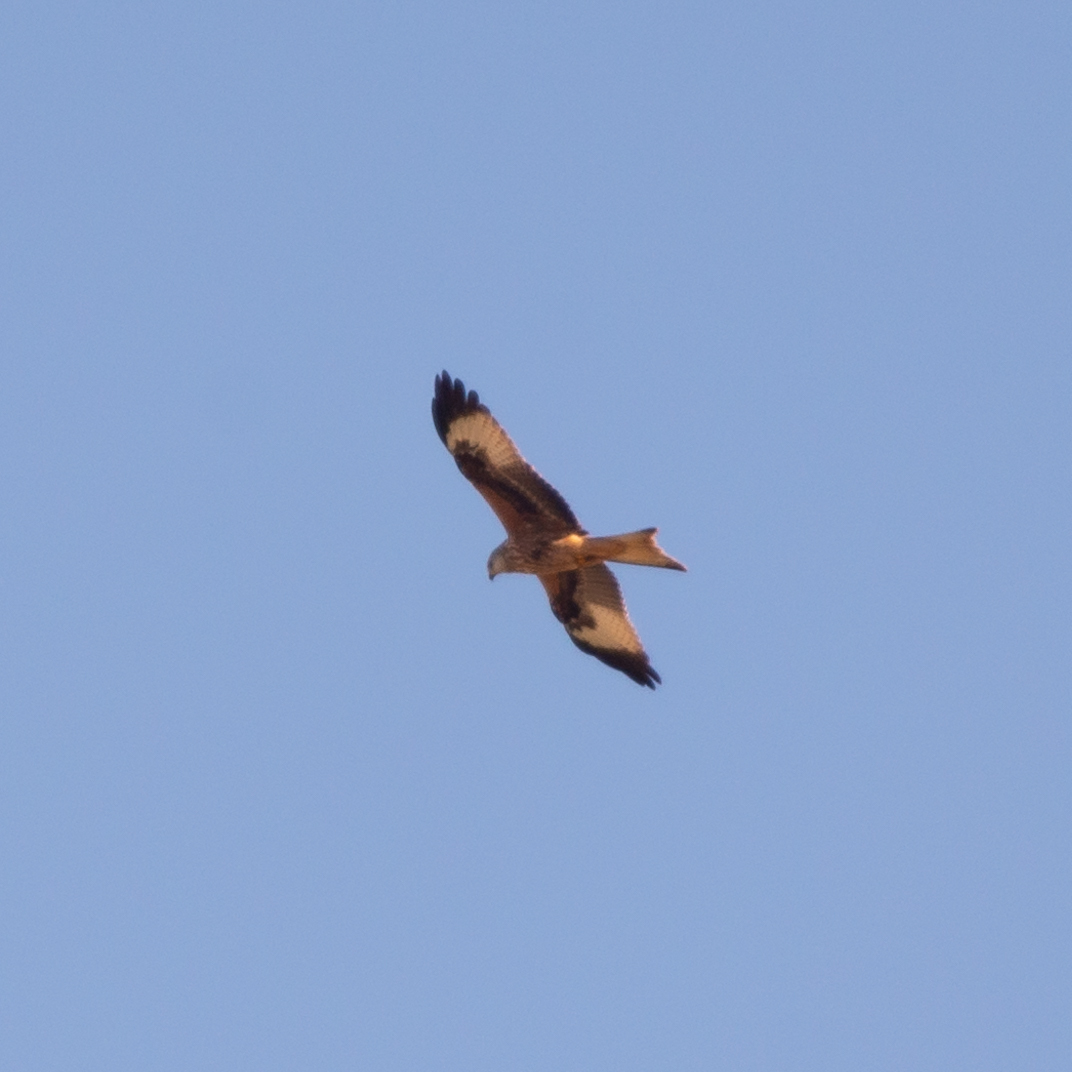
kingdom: Animalia
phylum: Chordata
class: Aves
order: Accipitriformes
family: Accipitridae
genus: Milvus
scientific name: Milvus milvus
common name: Red kite
